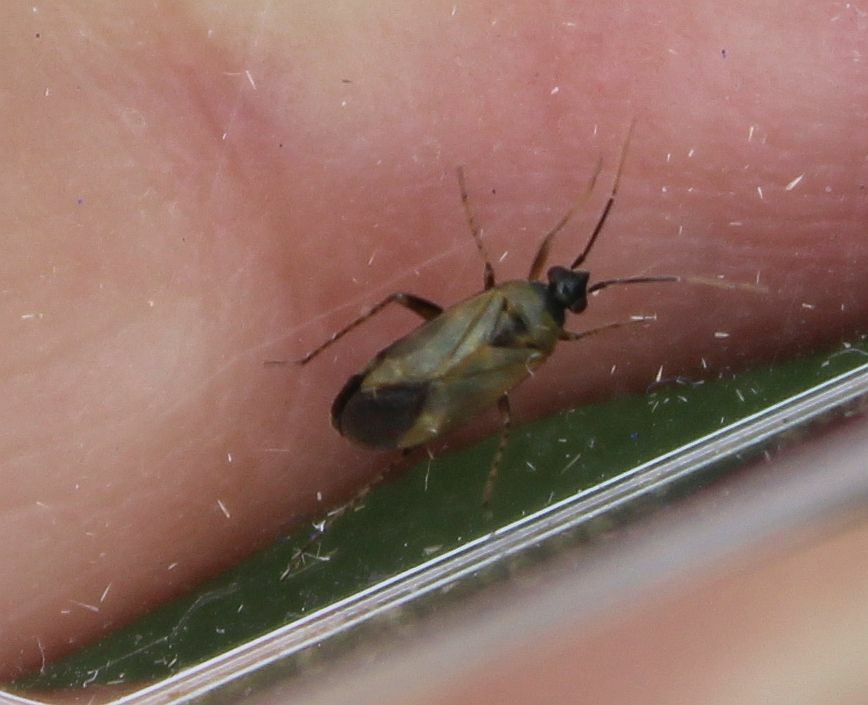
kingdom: Animalia
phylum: Arthropoda
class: Insecta
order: Hemiptera
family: Miridae
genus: Plagiognathus
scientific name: Plagiognathus arbustorum
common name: Plant bug
